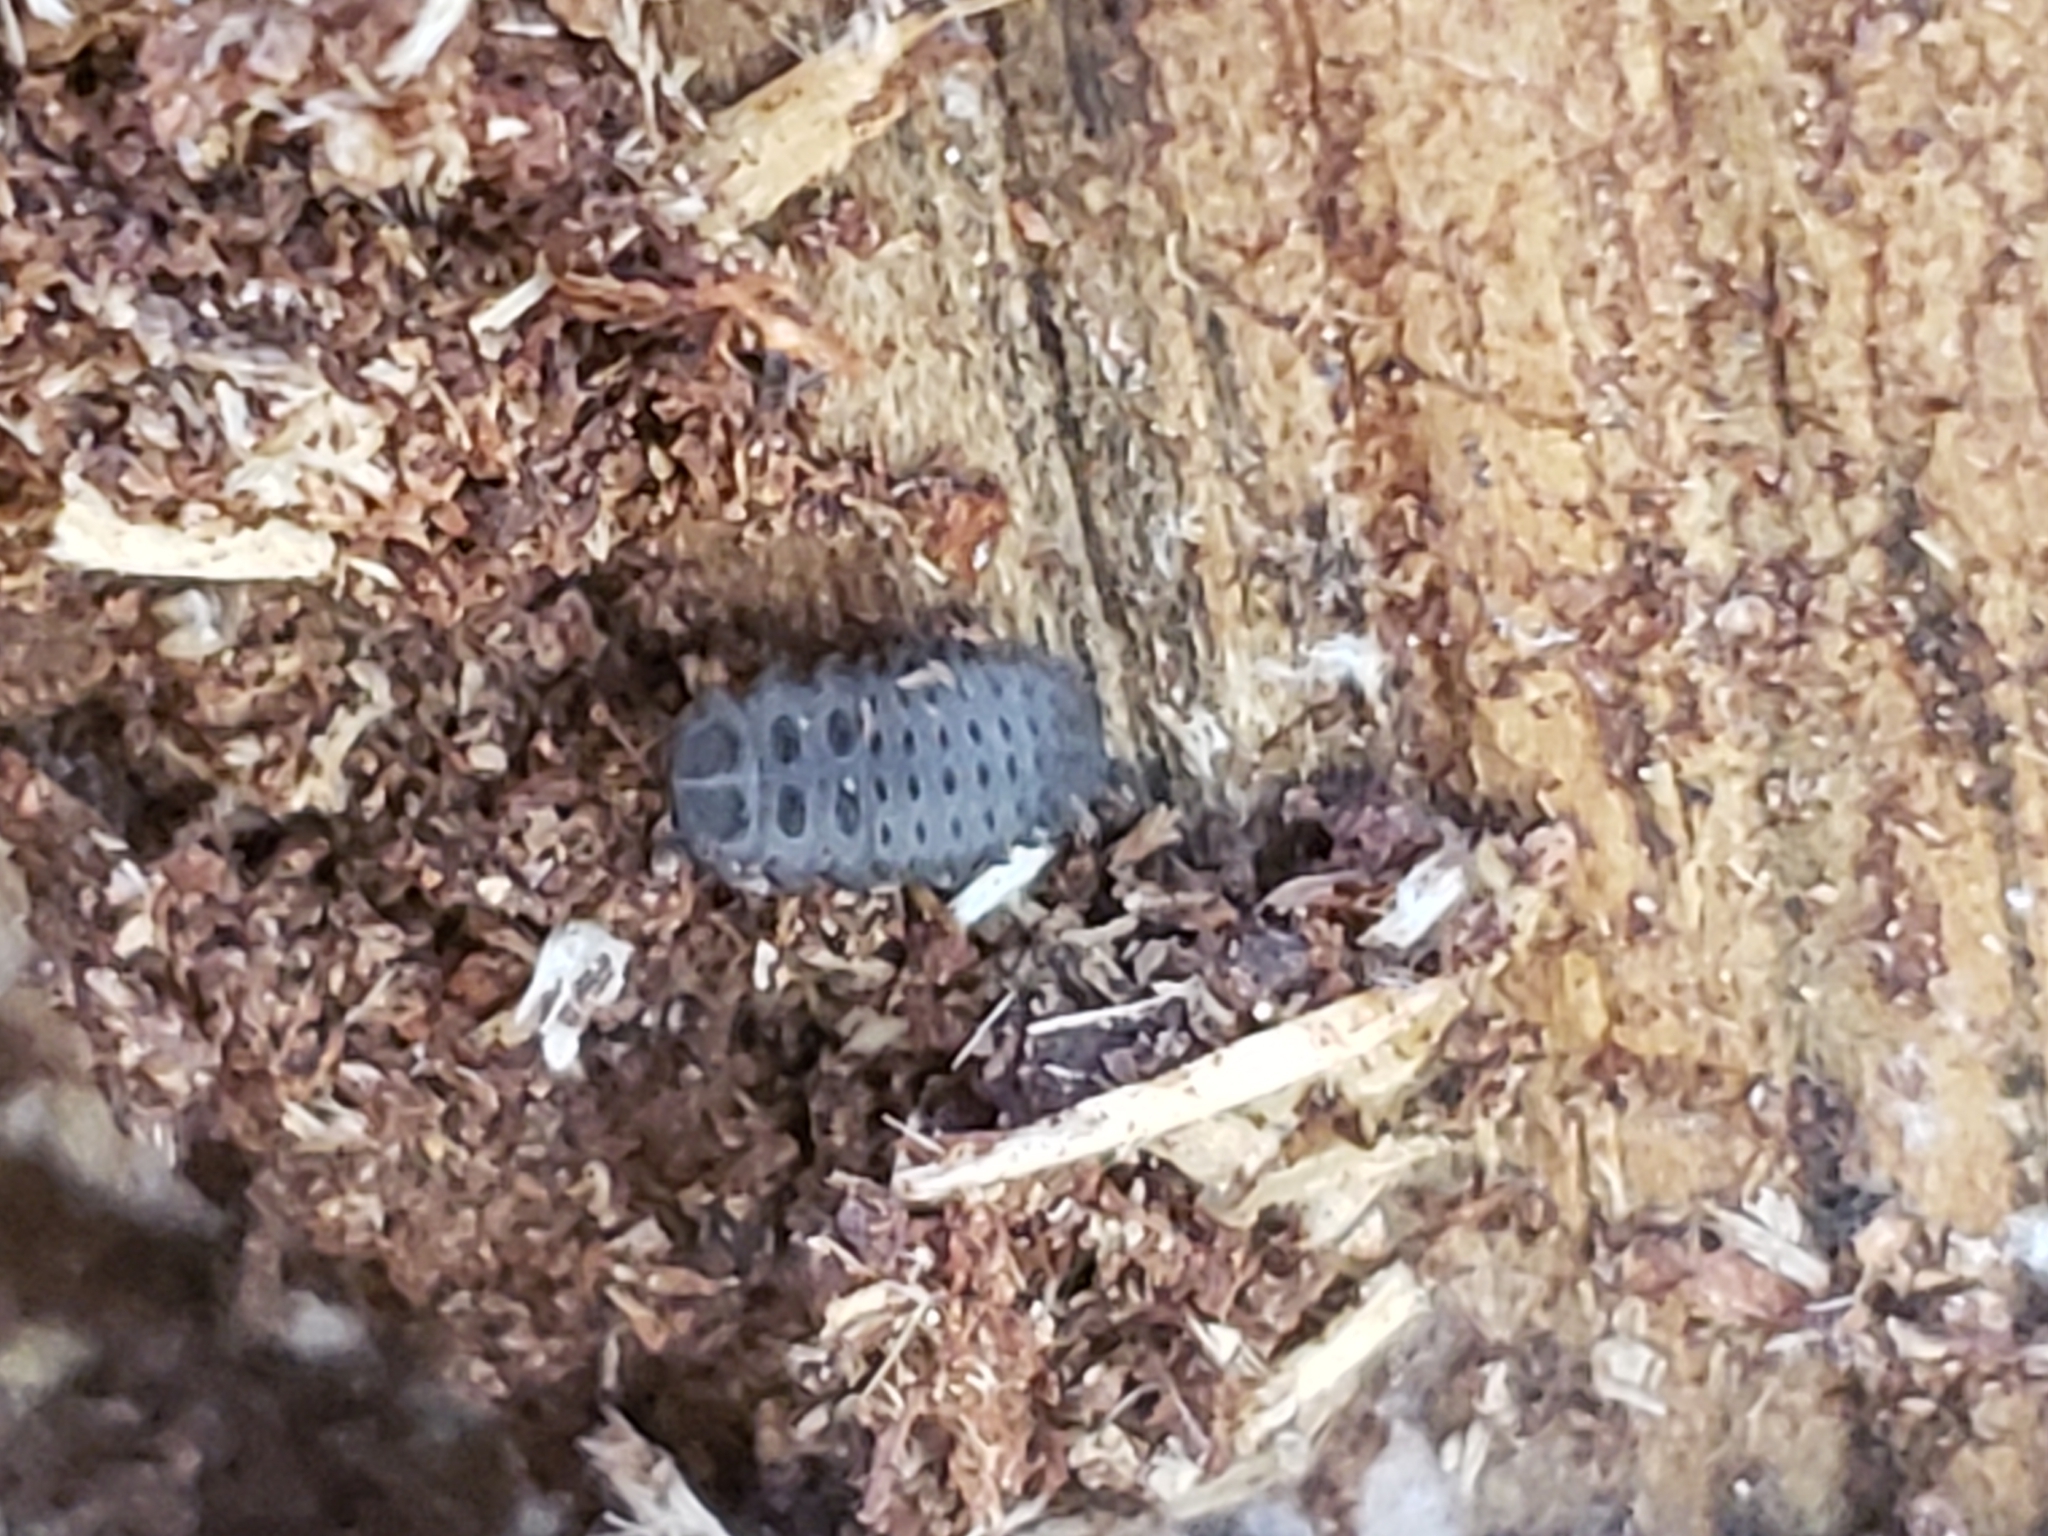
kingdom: Animalia
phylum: Arthropoda
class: Insecta
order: Coleoptera
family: Endomychidae
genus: Endomychus
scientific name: Endomychus biguttatus
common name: Handsome fungus beetle
